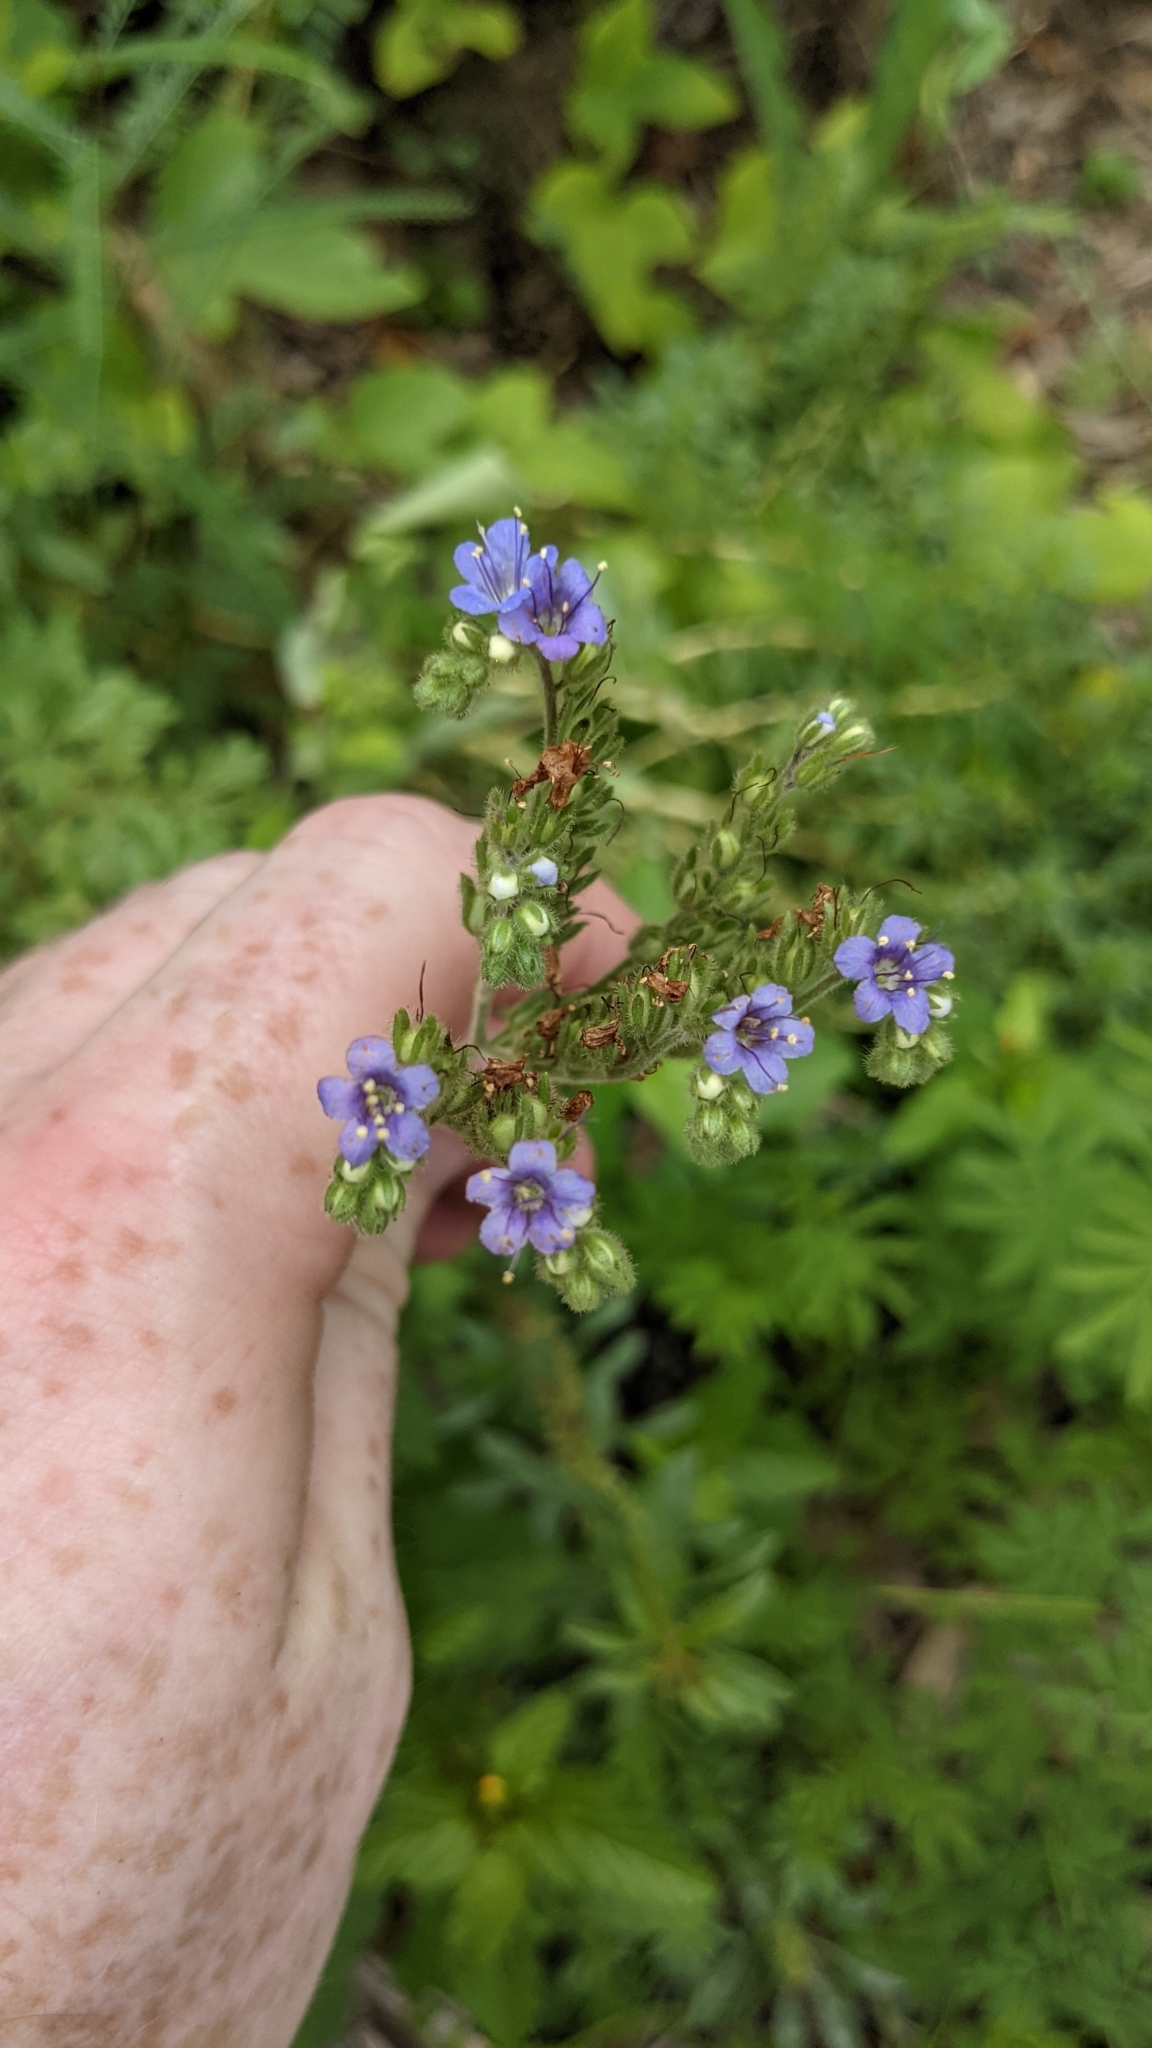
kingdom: Plantae
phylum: Tracheophyta
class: Magnoliopsida
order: Boraginales
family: Hydrophyllaceae
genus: Phacelia
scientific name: Phacelia congesta
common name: Blue curls
